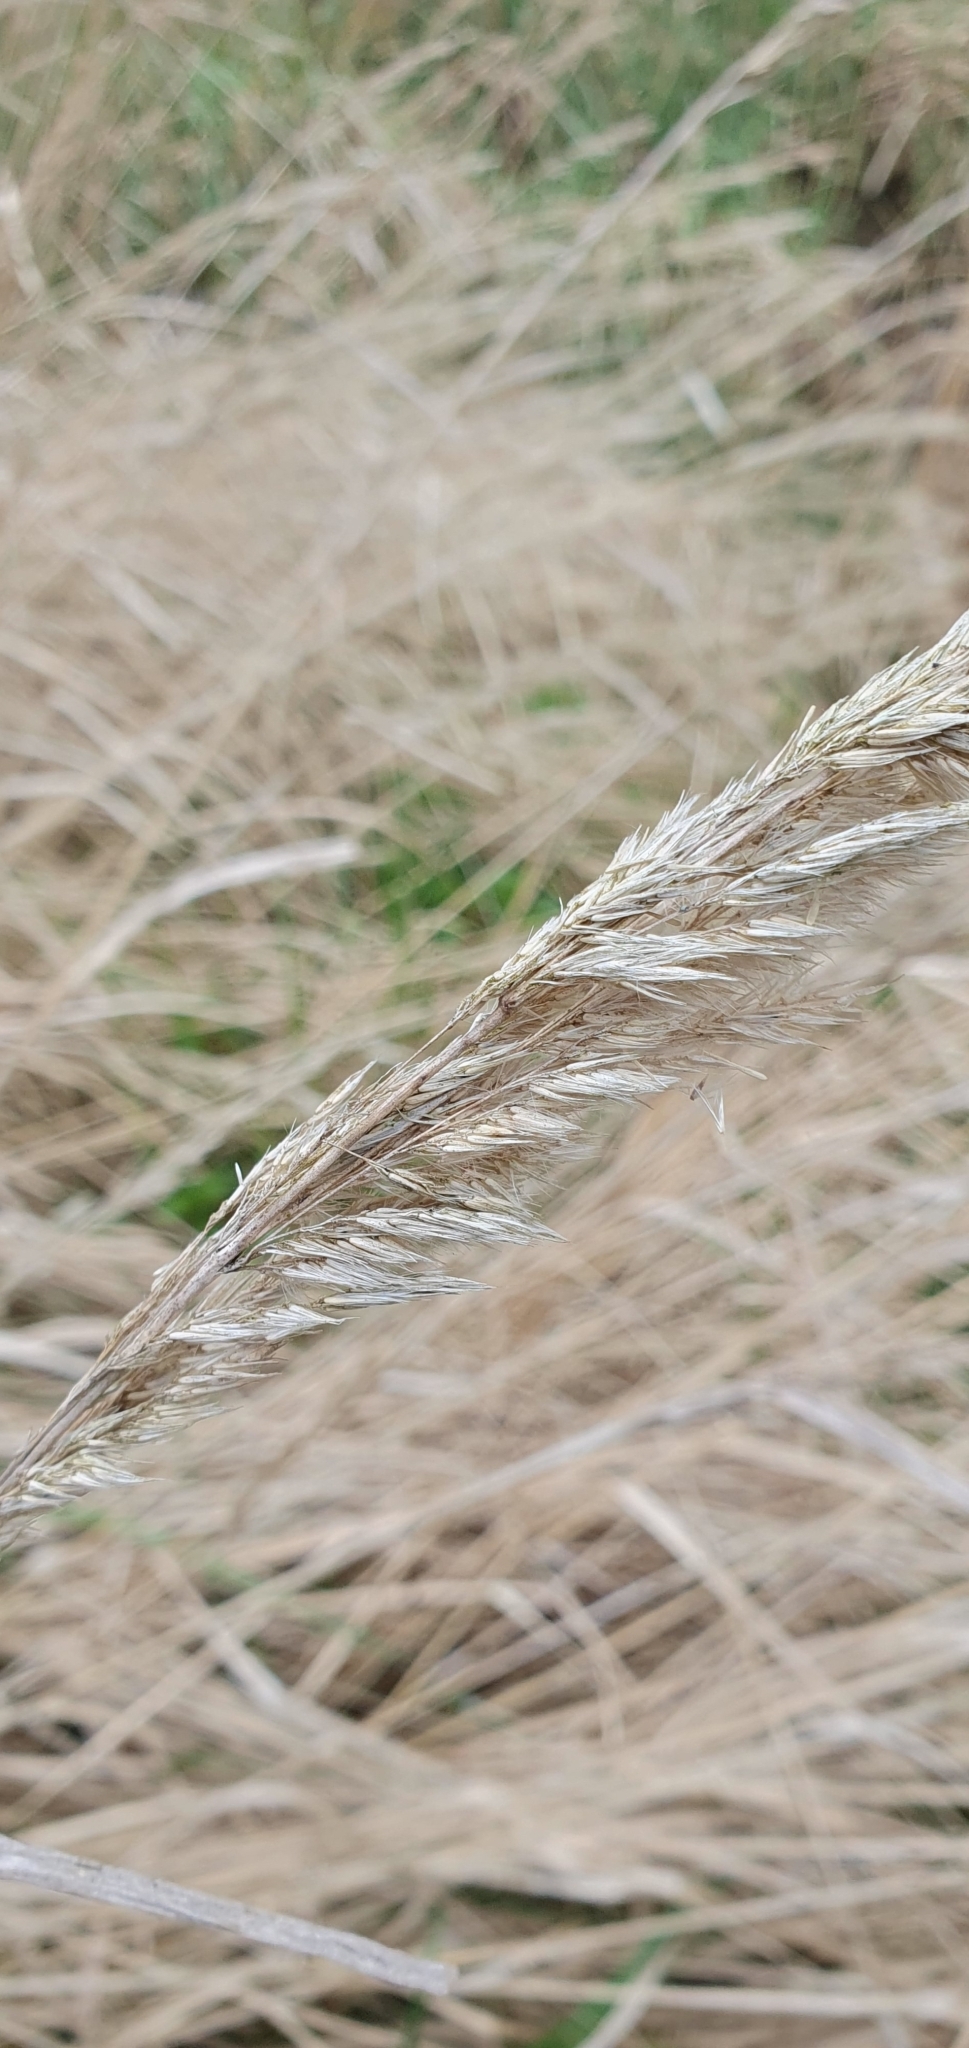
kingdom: Plantae
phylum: Tracheophyta
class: Liliopsida
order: Poales
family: Poaceae
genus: Calamagrostis
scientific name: Calamagrostis epigejos
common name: Wood small-reed
